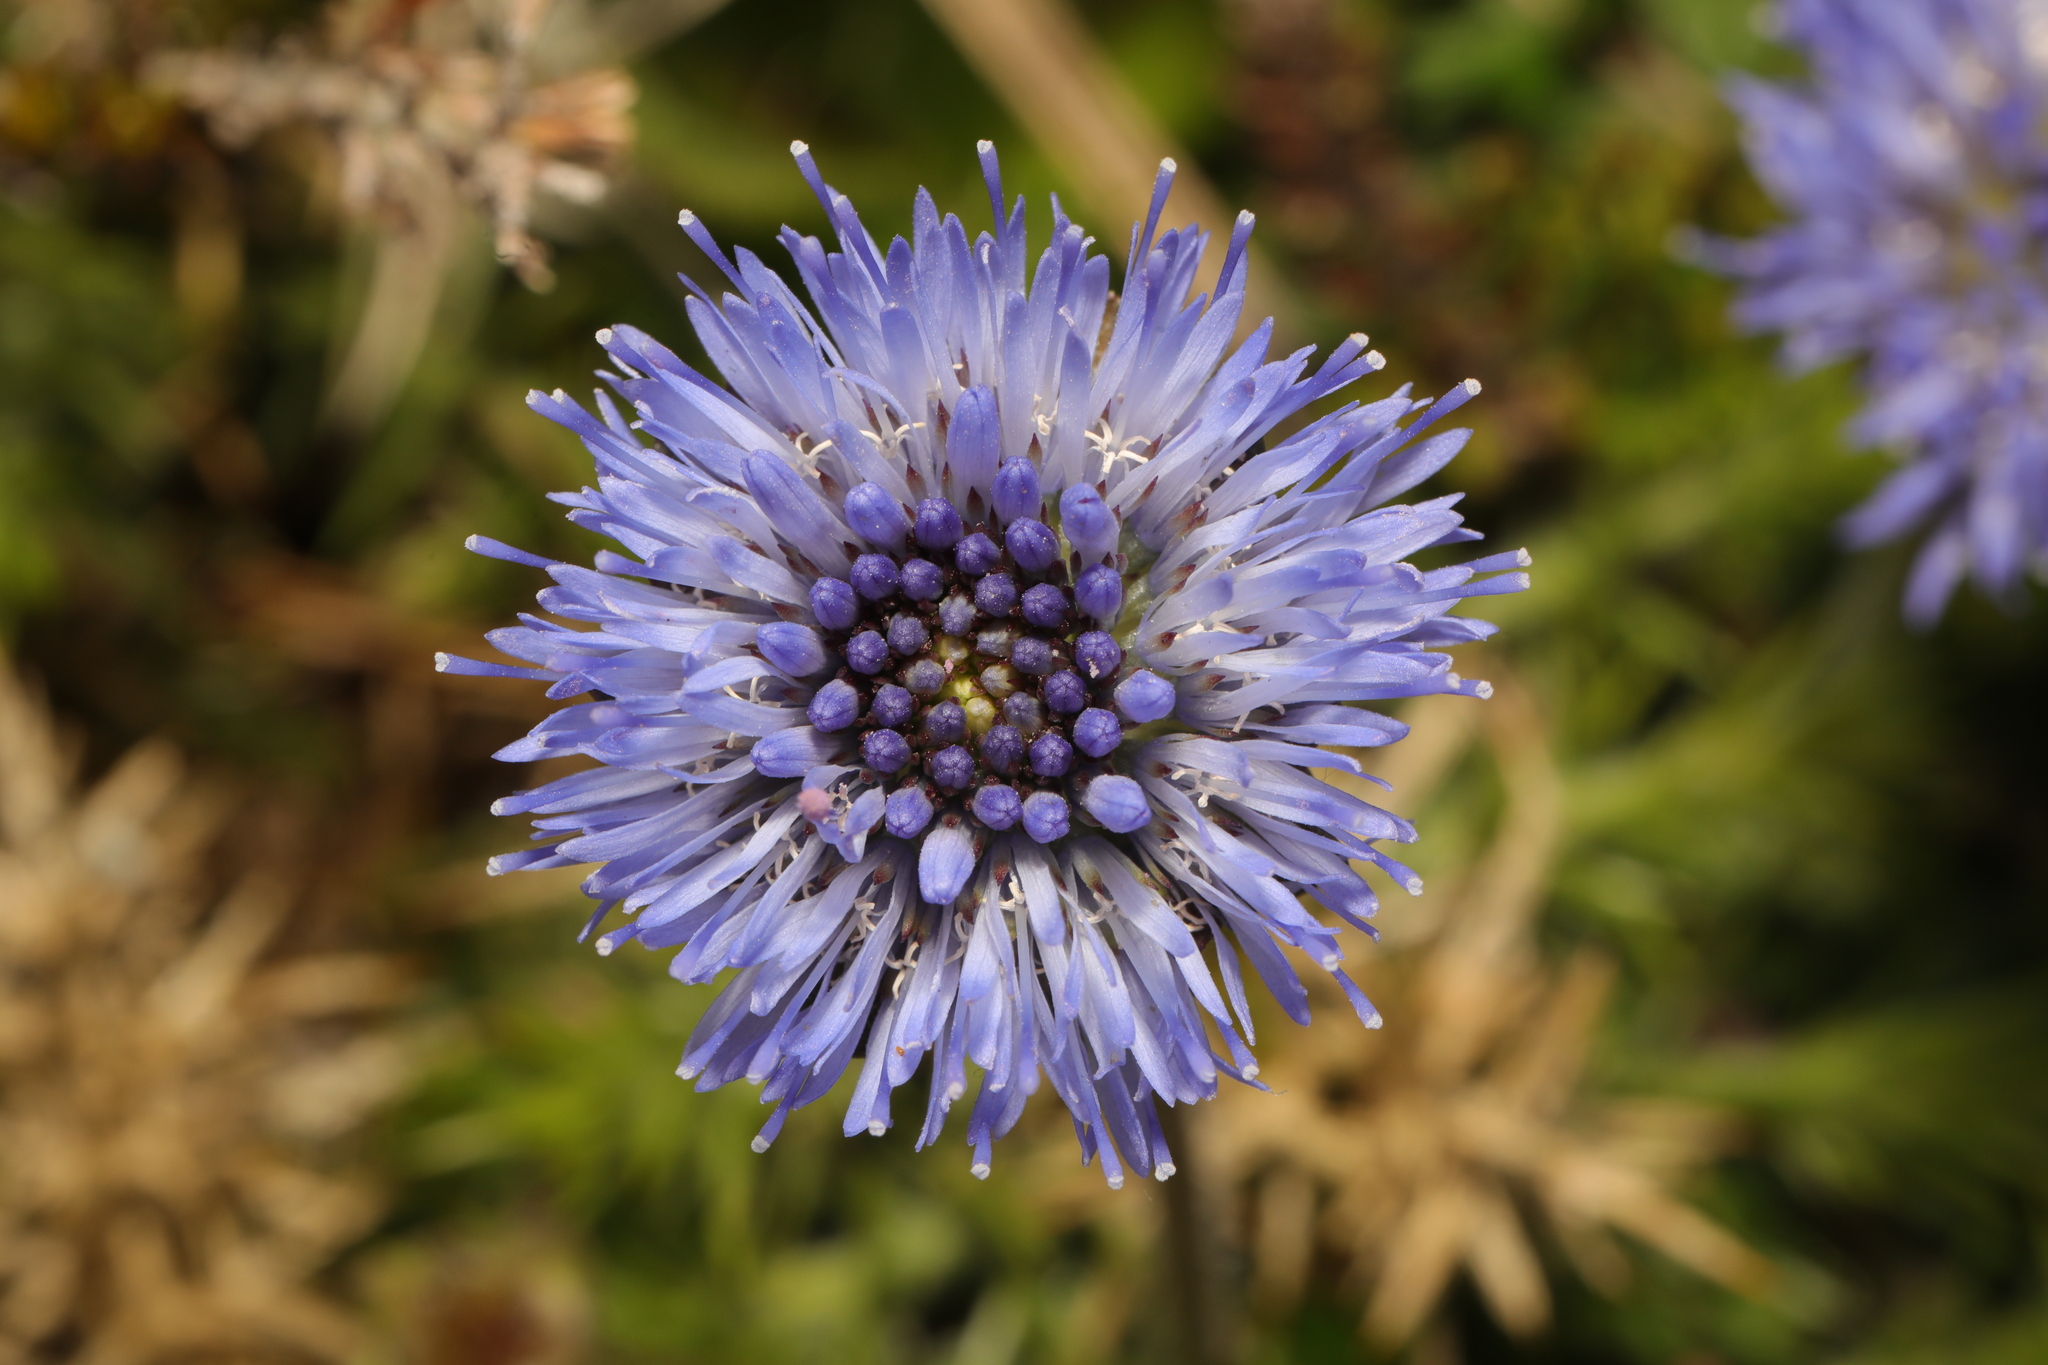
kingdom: Plantae
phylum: Tracheophyta
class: Magnoliopsida
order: Asterales
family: Campanulaceae
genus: Jasione
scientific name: Jasione montana
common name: Sheep's-bit
